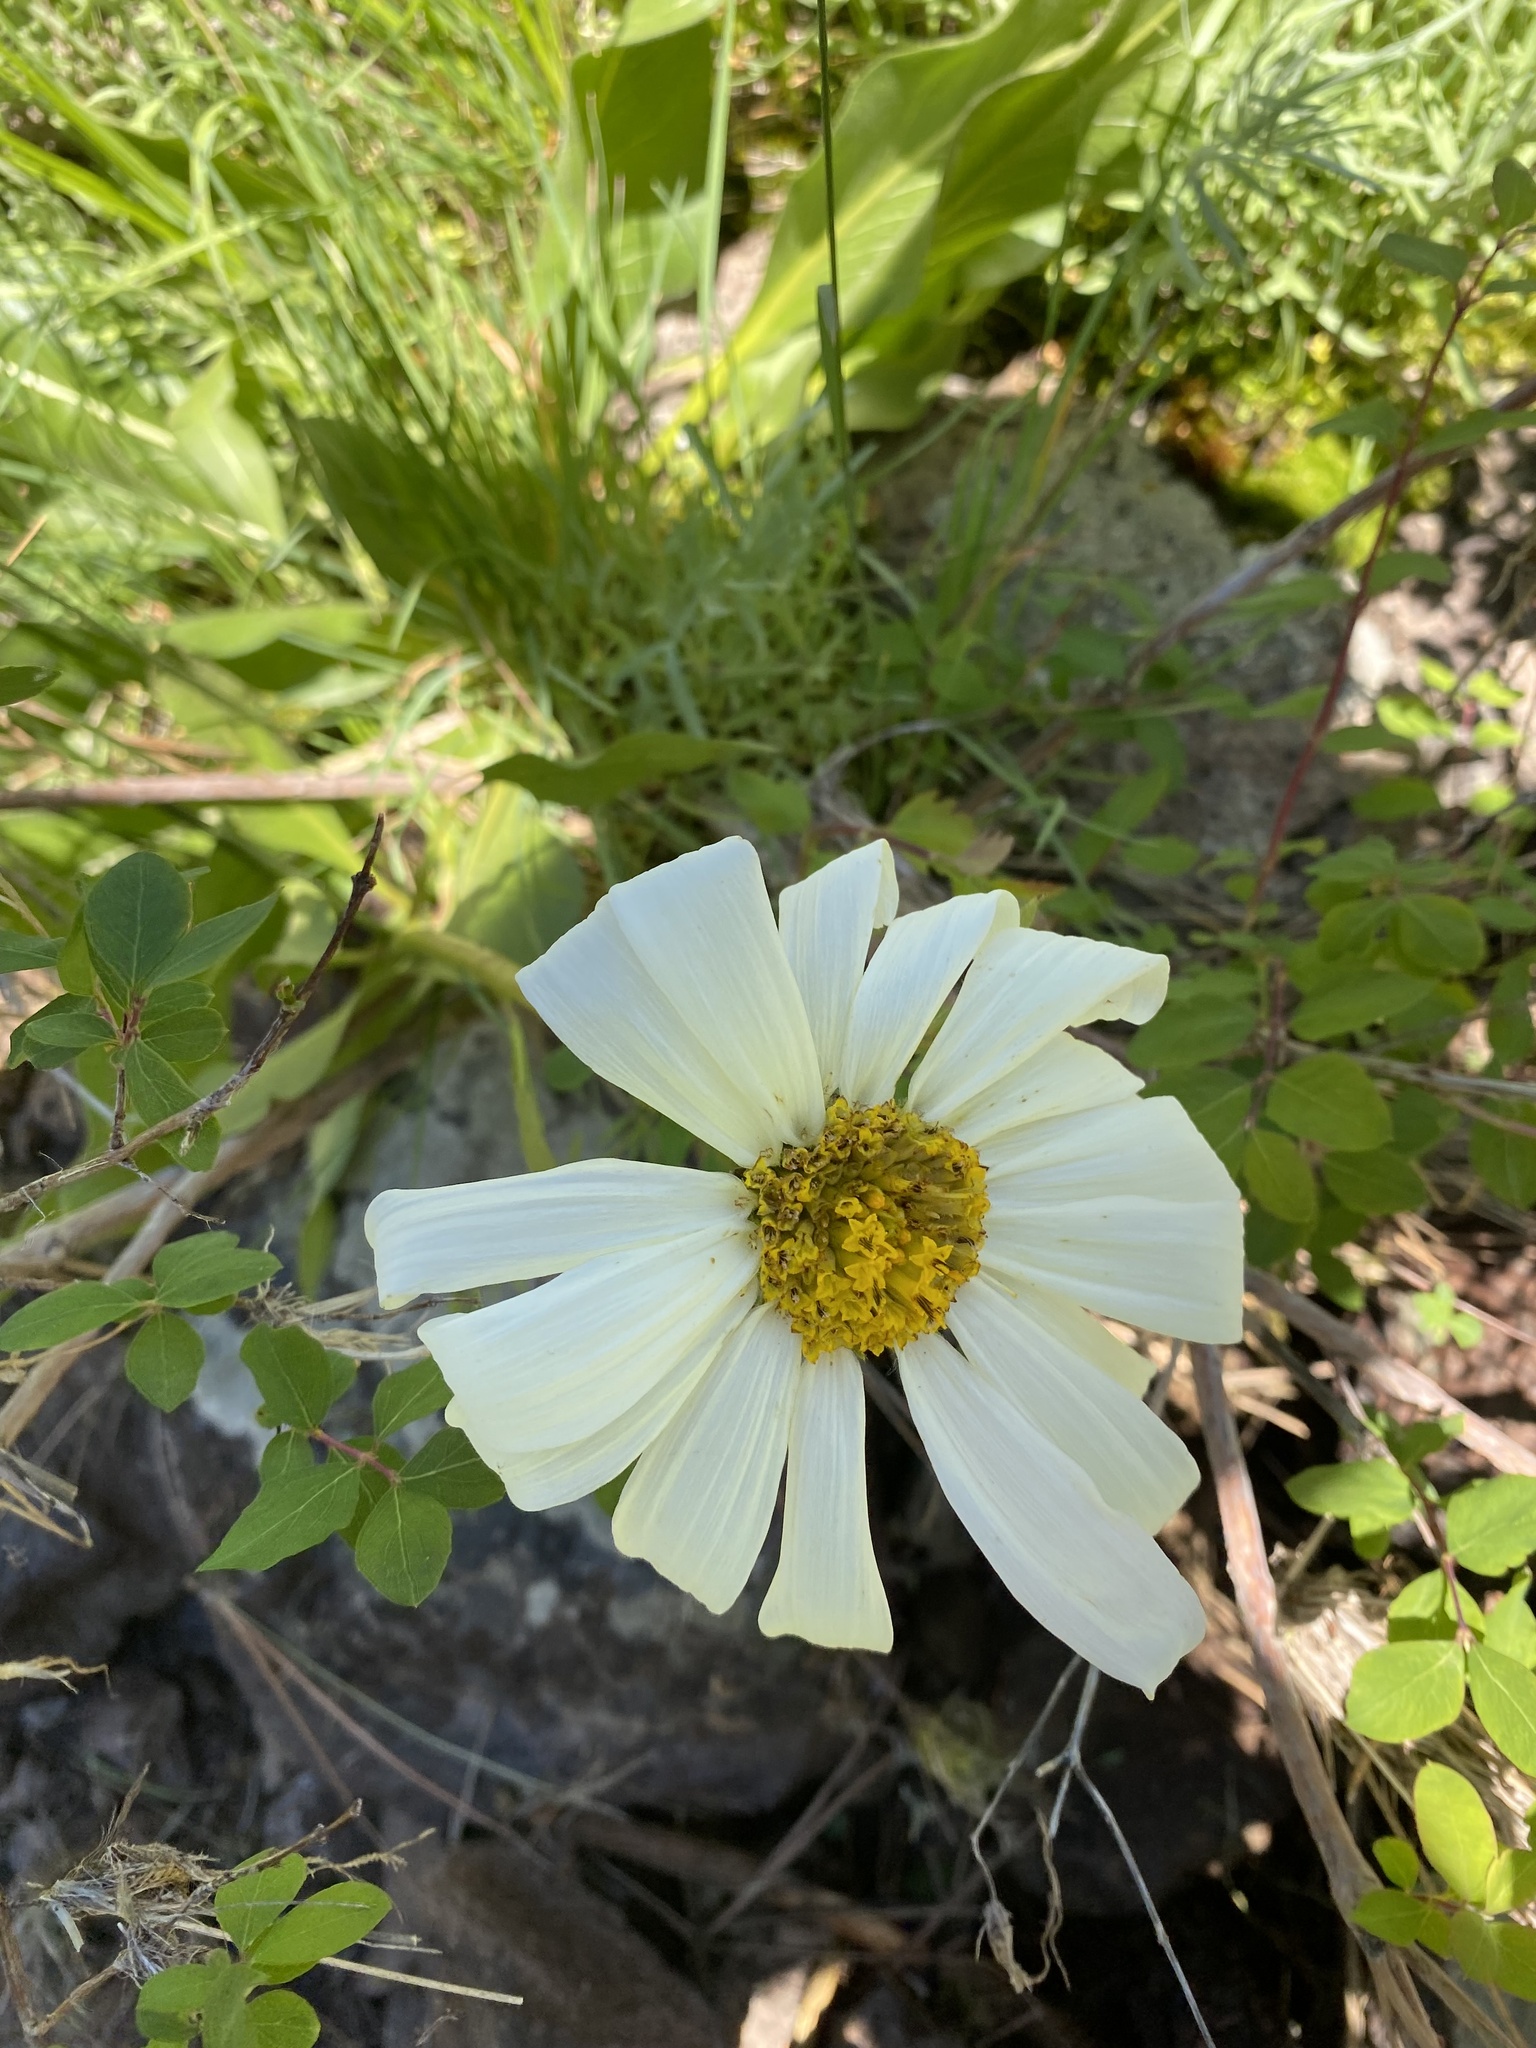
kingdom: Plantae
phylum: Tracheophyta
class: Magnoliopsida
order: Asterales
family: Asteraceae
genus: Wyethia
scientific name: Wyethia helianthoides
